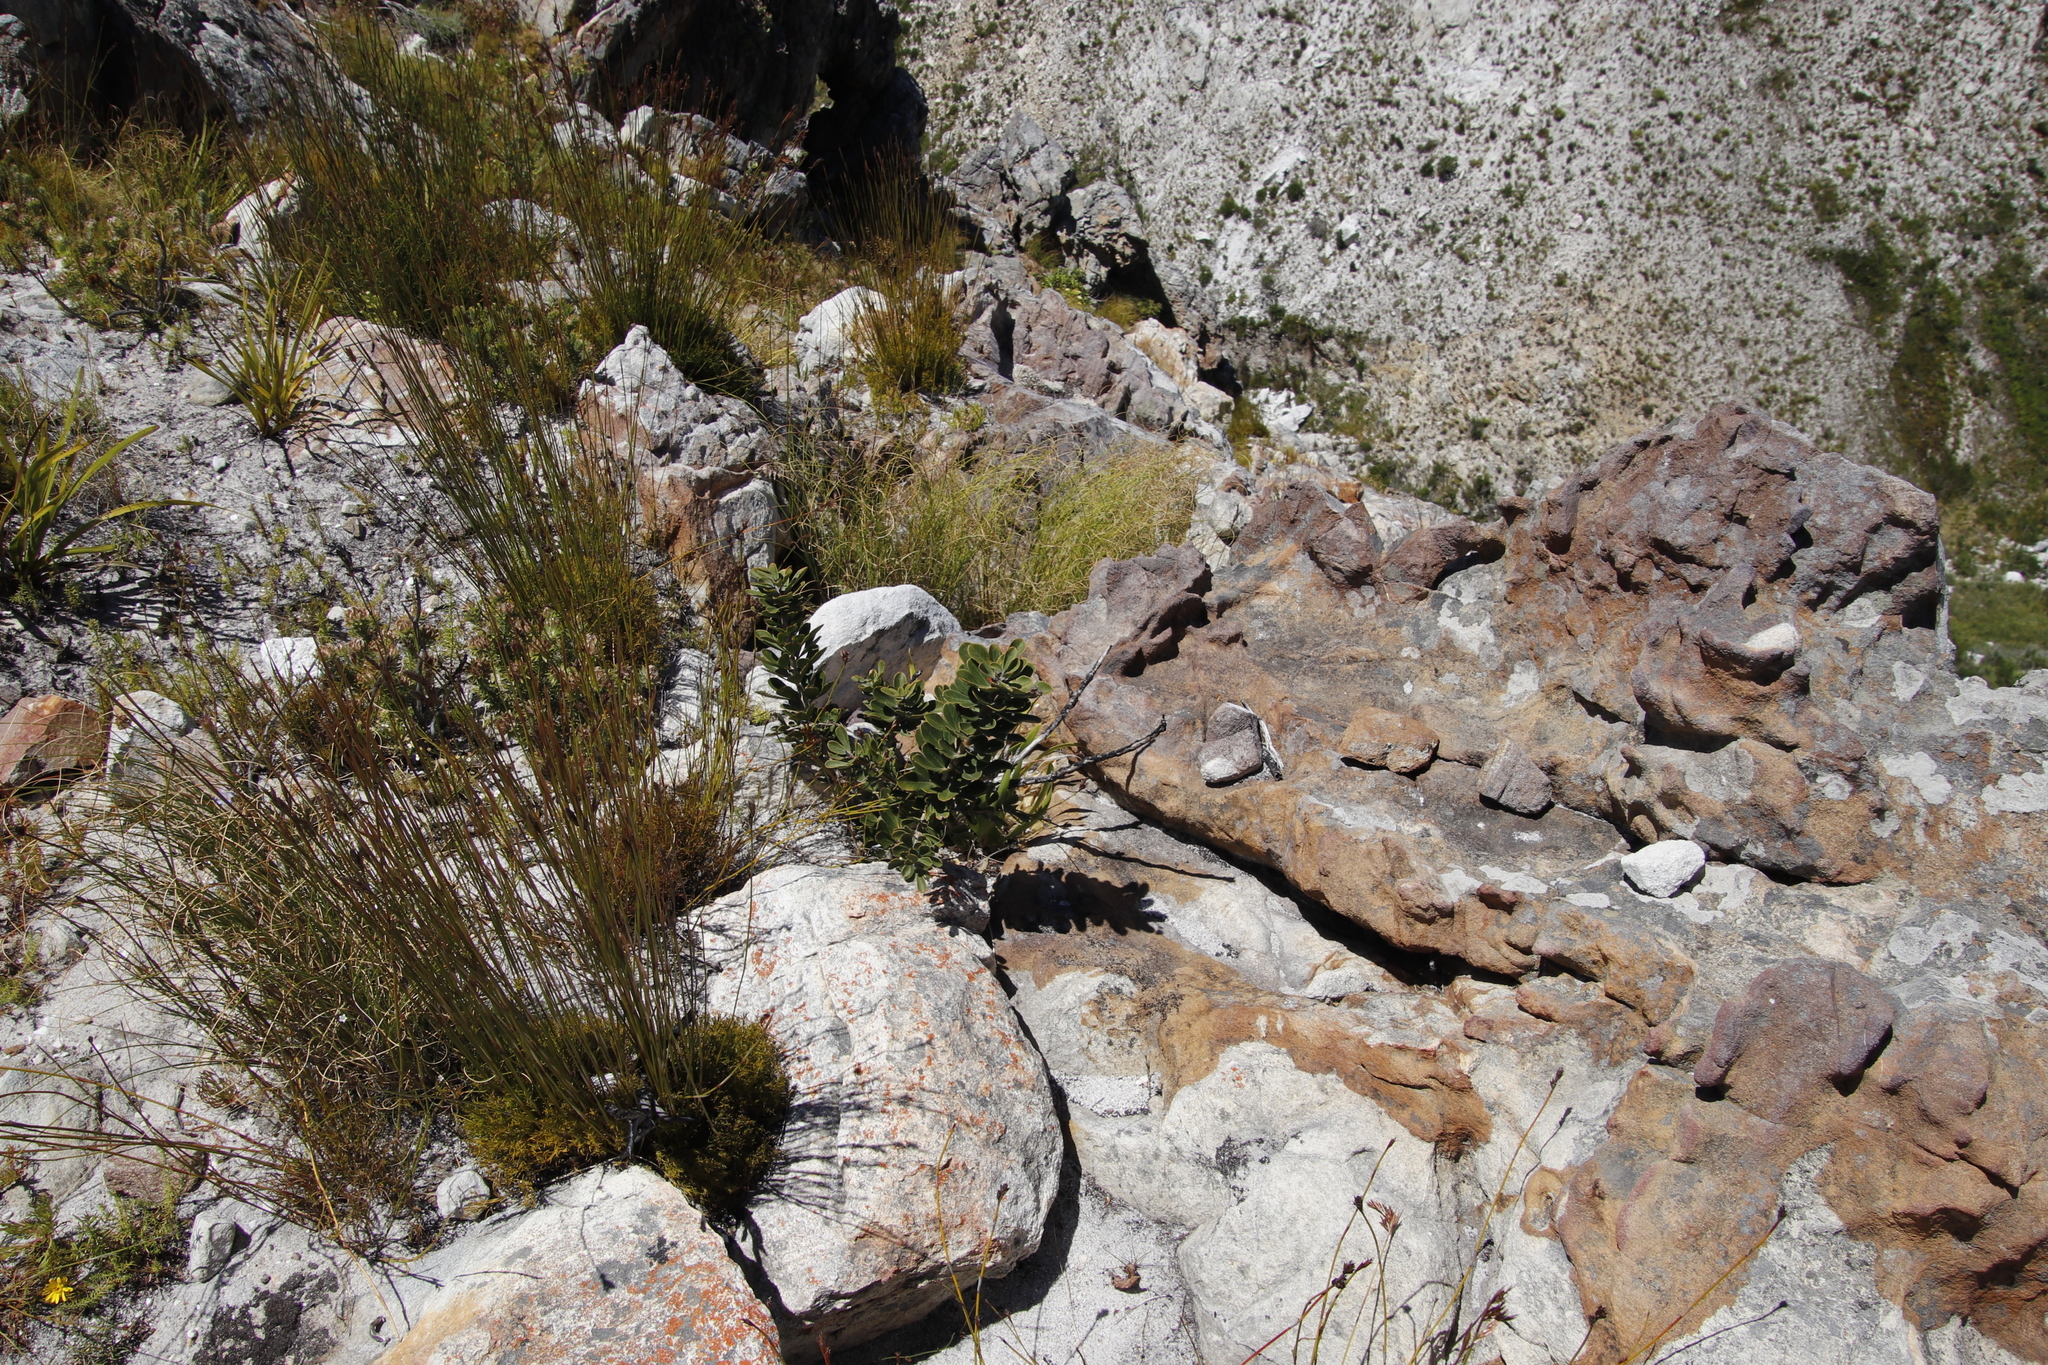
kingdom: Plantae
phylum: Tracheophyta
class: Magnoliopsida
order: Sapindales
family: Anacardiaceae
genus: Searsia
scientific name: Searsia scytophylla
